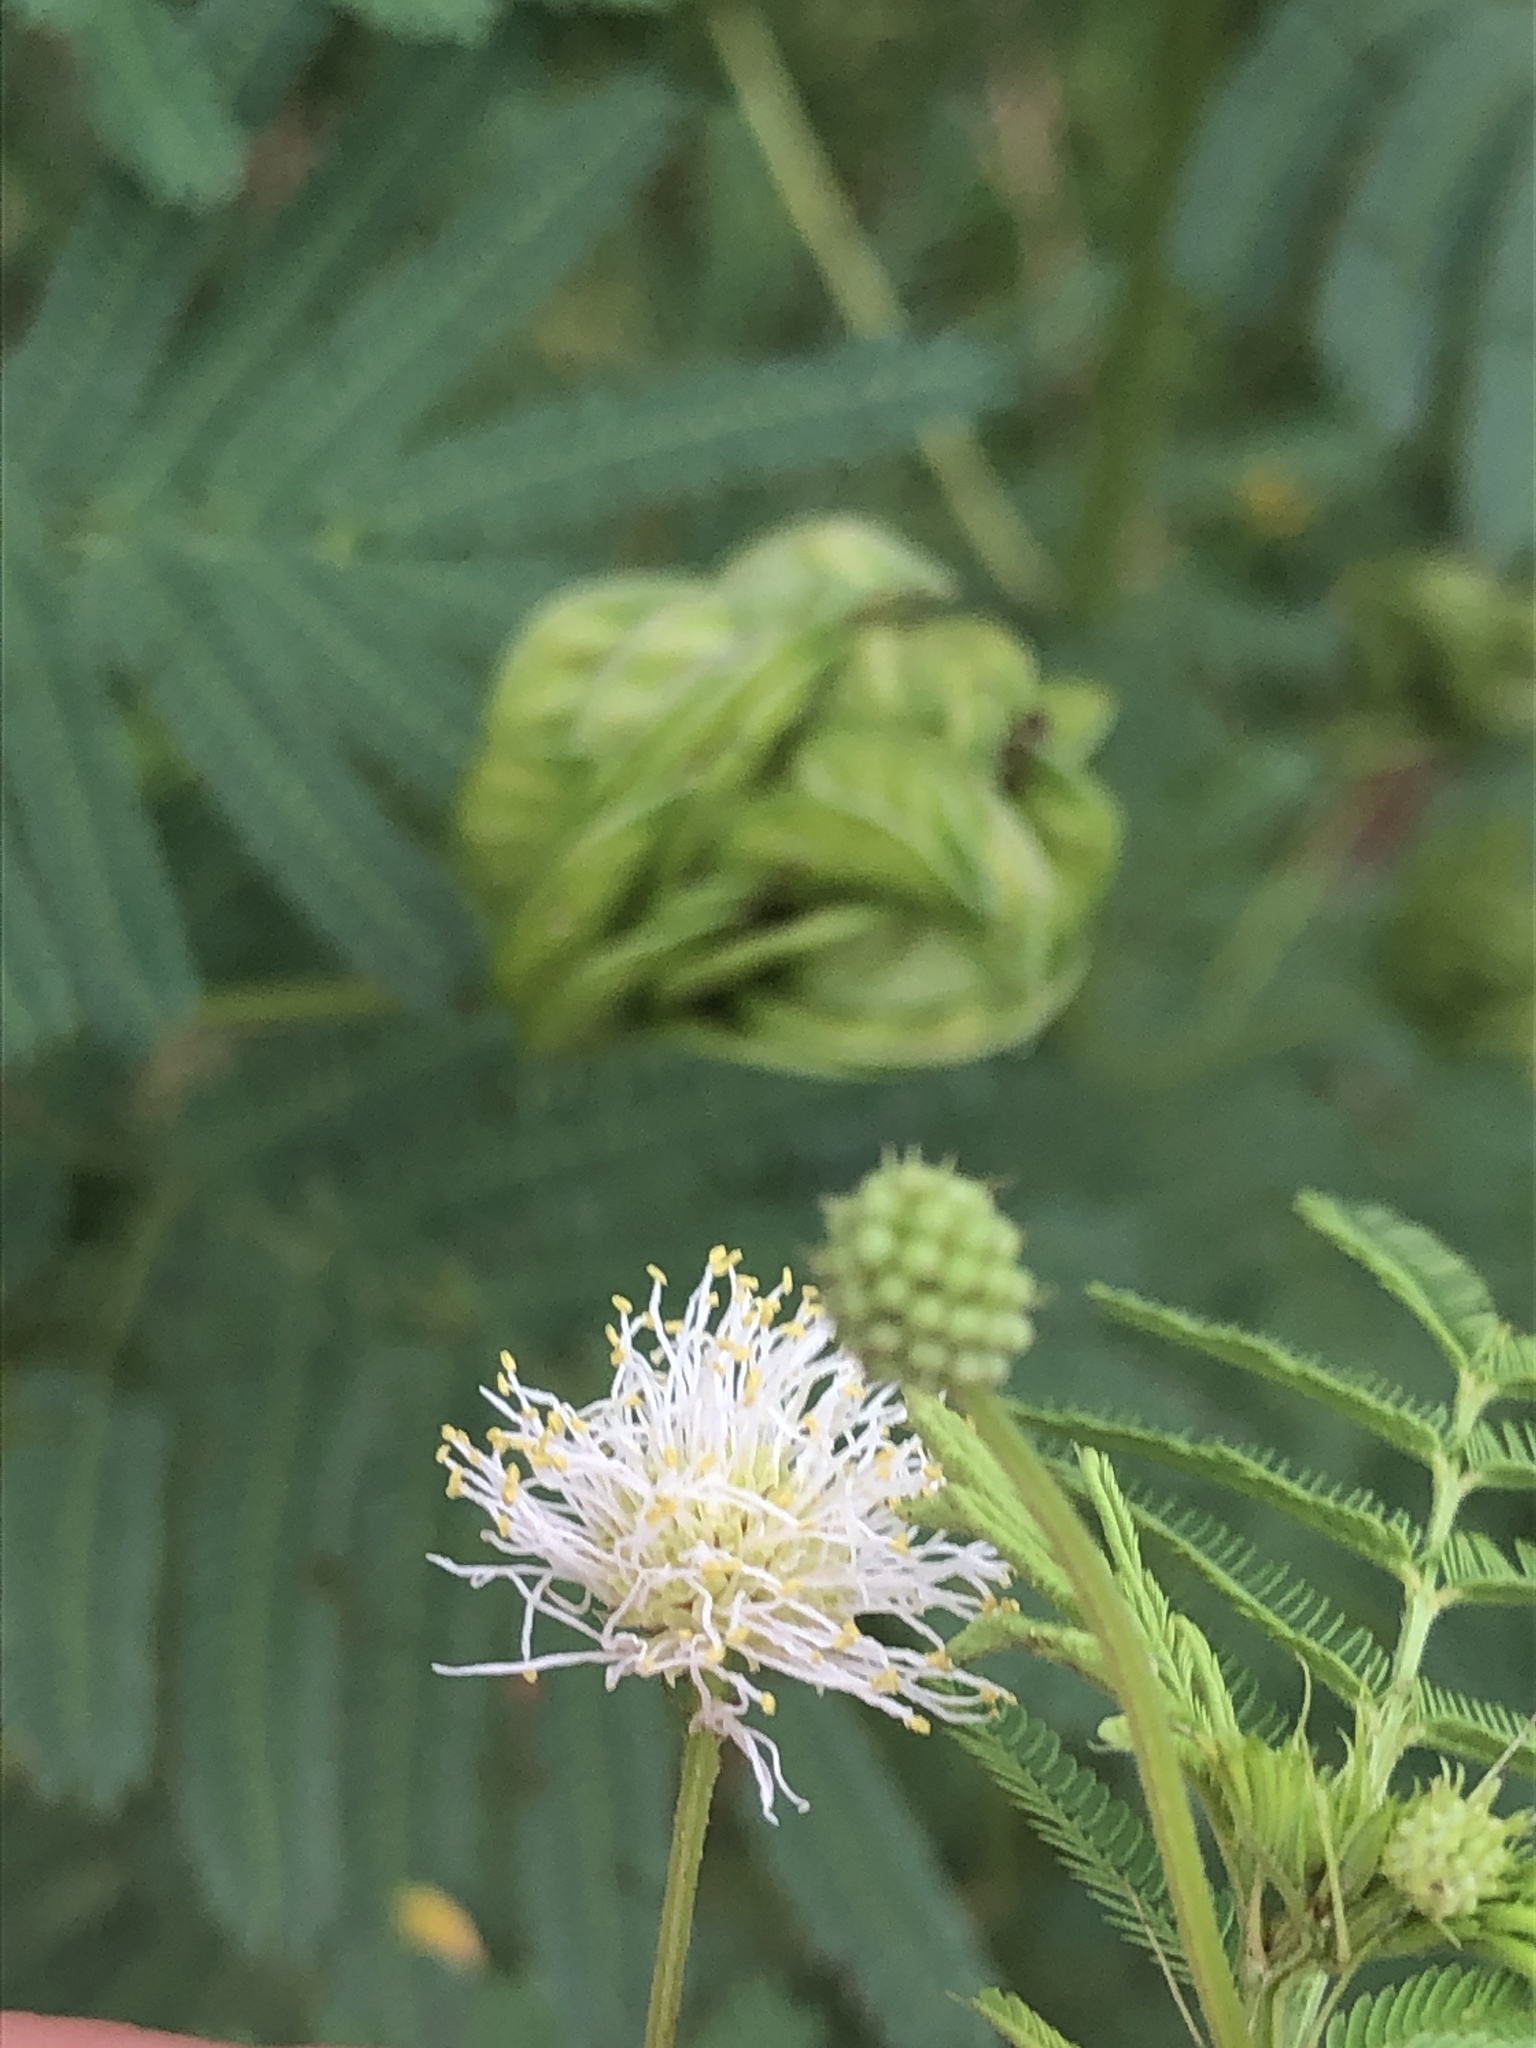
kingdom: Plantae
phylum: Tracheophyta
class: Magnoliopsida
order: Fabales
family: Fabaceae
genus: Desmanthus
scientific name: Desmanthus illinoensis
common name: Illinois bundle-flower
